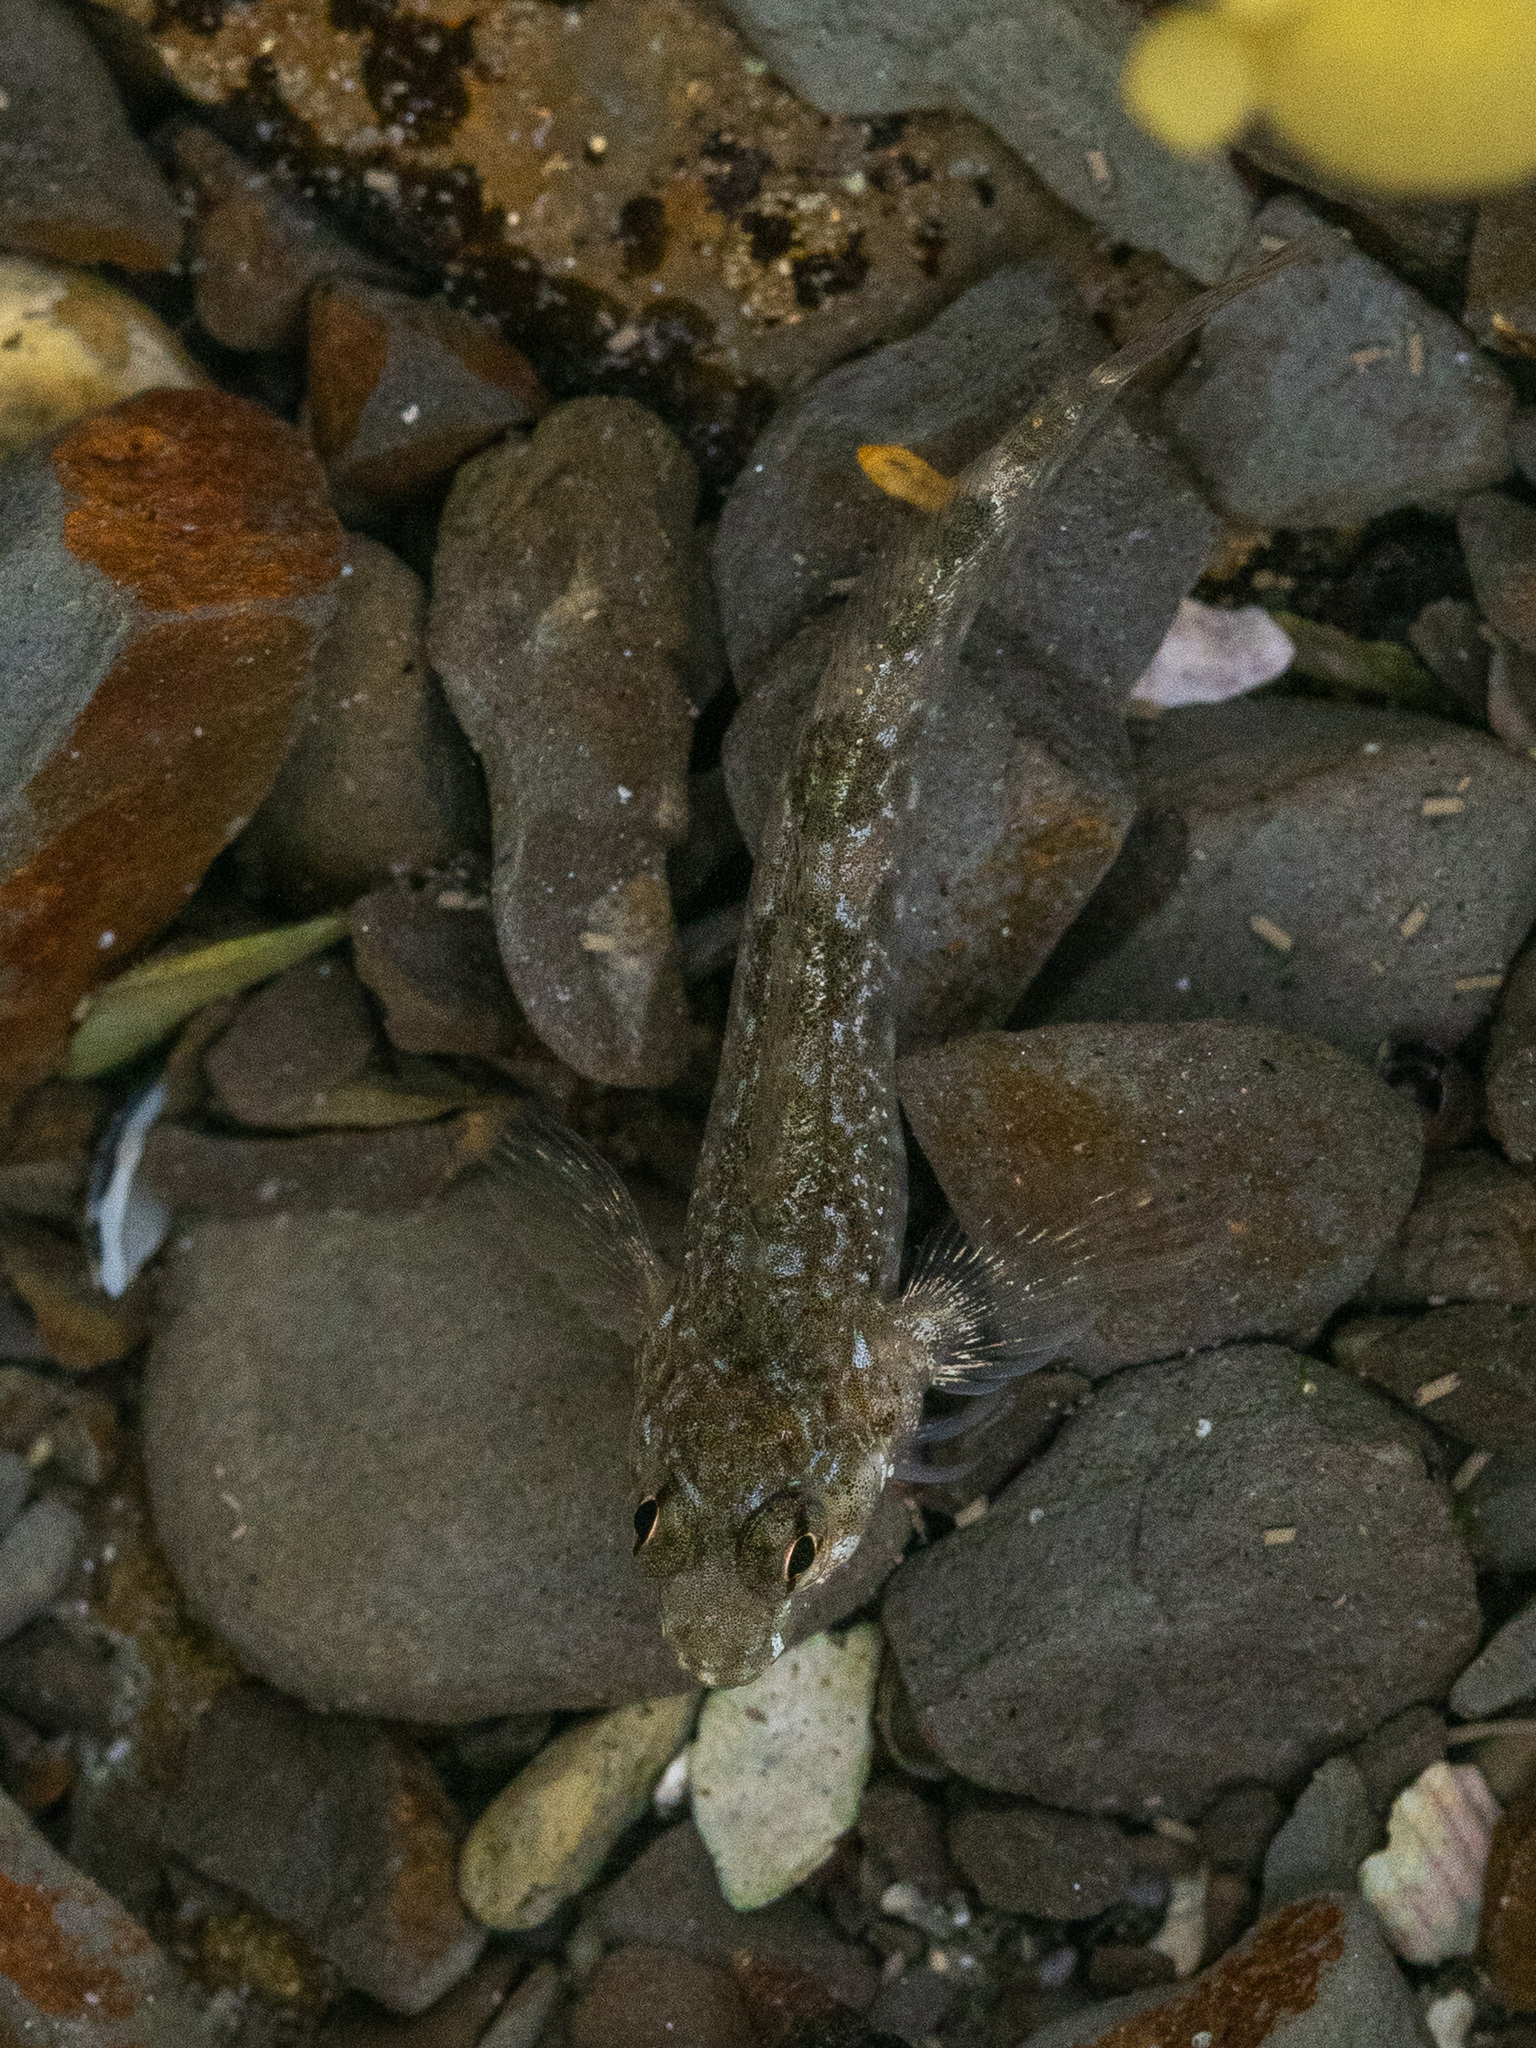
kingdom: Animalia
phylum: Chordata
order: Perciformes
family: Tripterygiidae
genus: Bellapiscis
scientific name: Bellapiscis medius
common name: Twister
